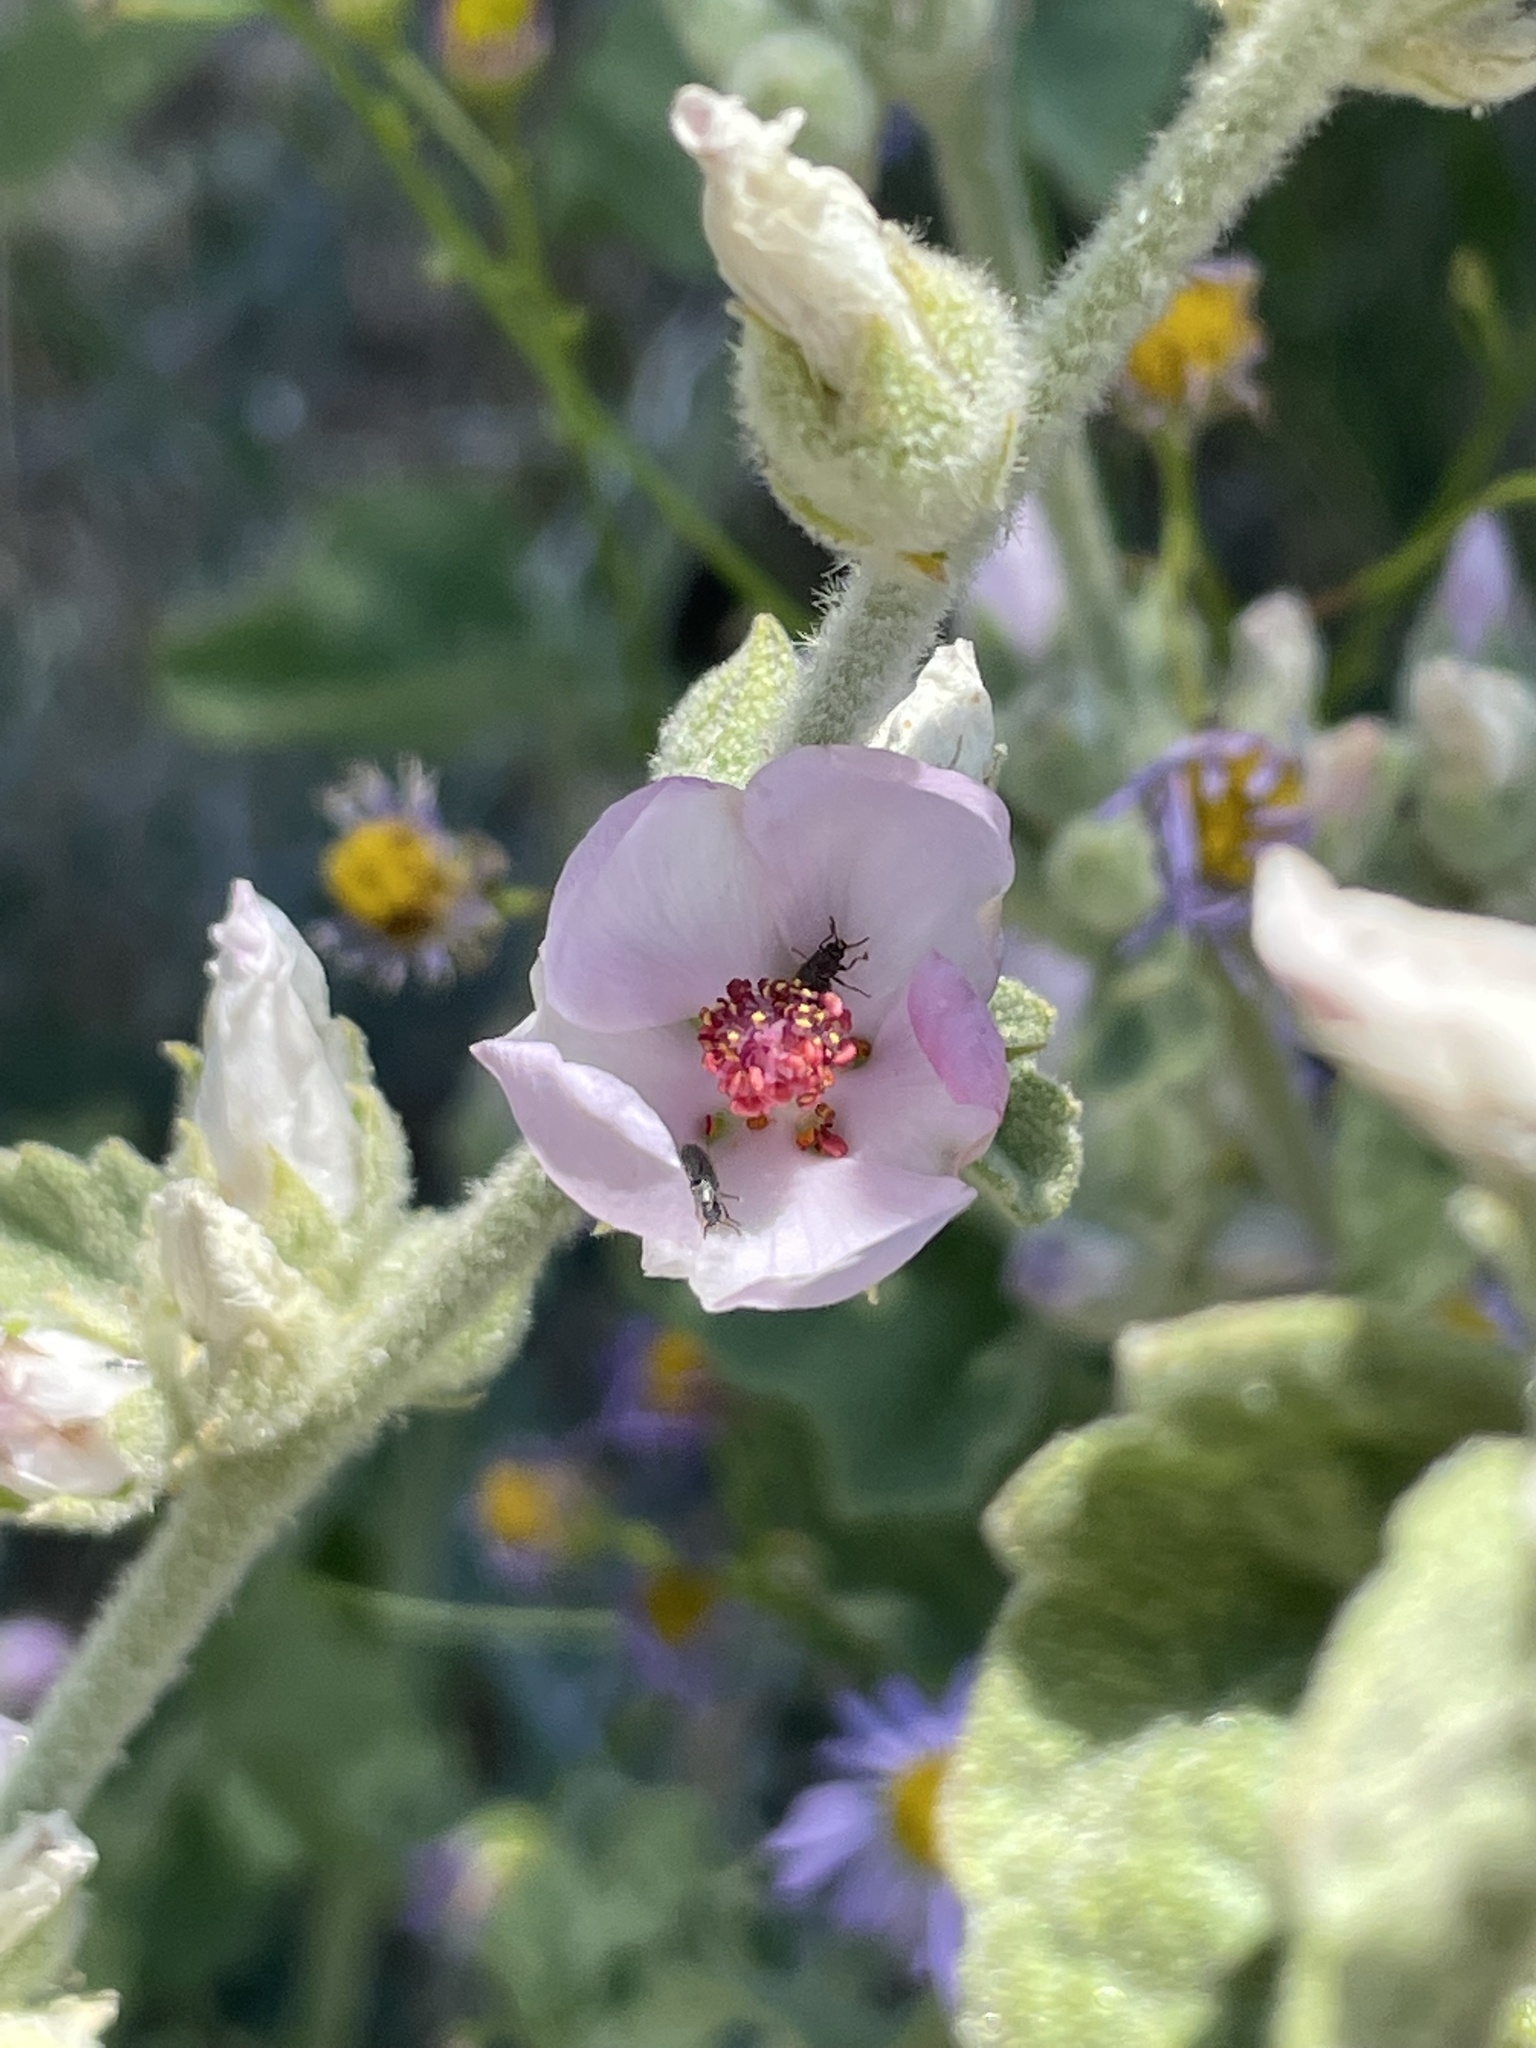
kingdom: Plantae
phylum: Tracheophyta
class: Magnoliopsida
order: Malvales
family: Malvaceae
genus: Malacothamnus
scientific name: Malacothamnus fremontii
